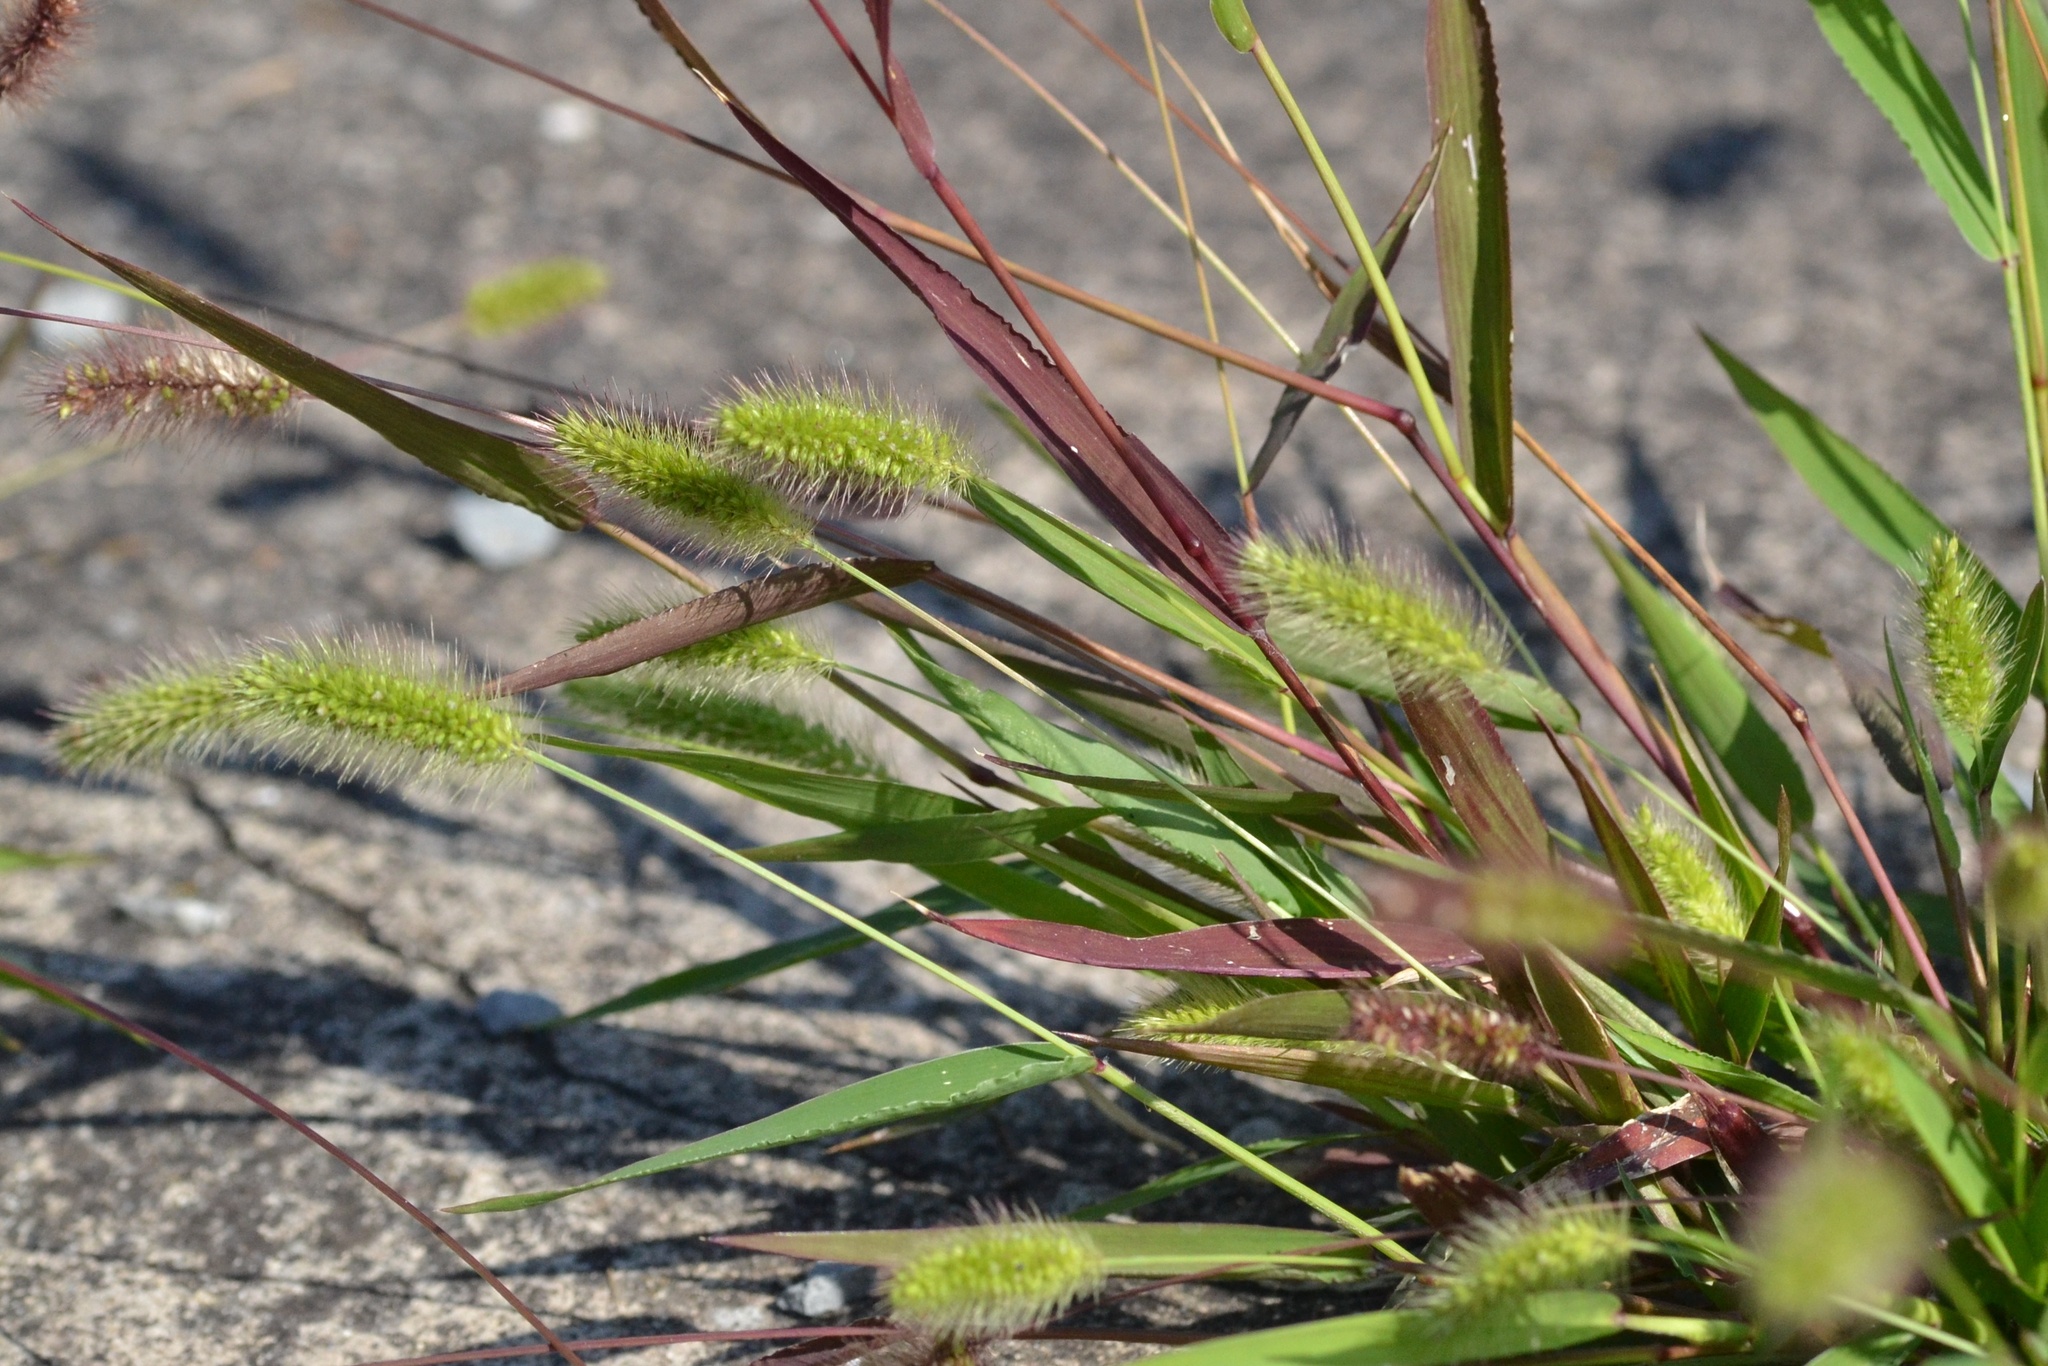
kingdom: Plantae
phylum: Tracheophyta
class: Liliopsida
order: Poales
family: Poaceae
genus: Setaria
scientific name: Setaria viridis
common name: Green bristlegrass
